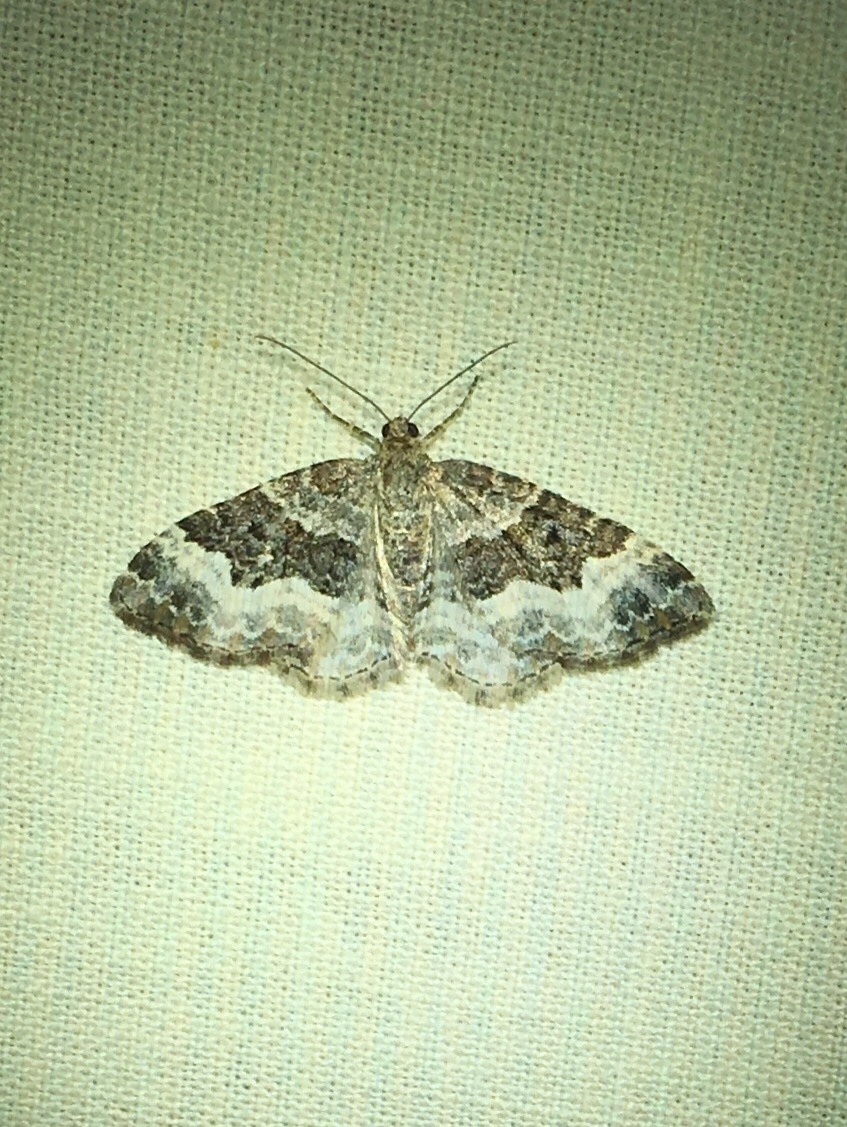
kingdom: Animalia
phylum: Arthropoda
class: Insecta
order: Lepidoptera
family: Geometridae
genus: Epirrhoe
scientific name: Epirrhoe alternata
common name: Common carpet
